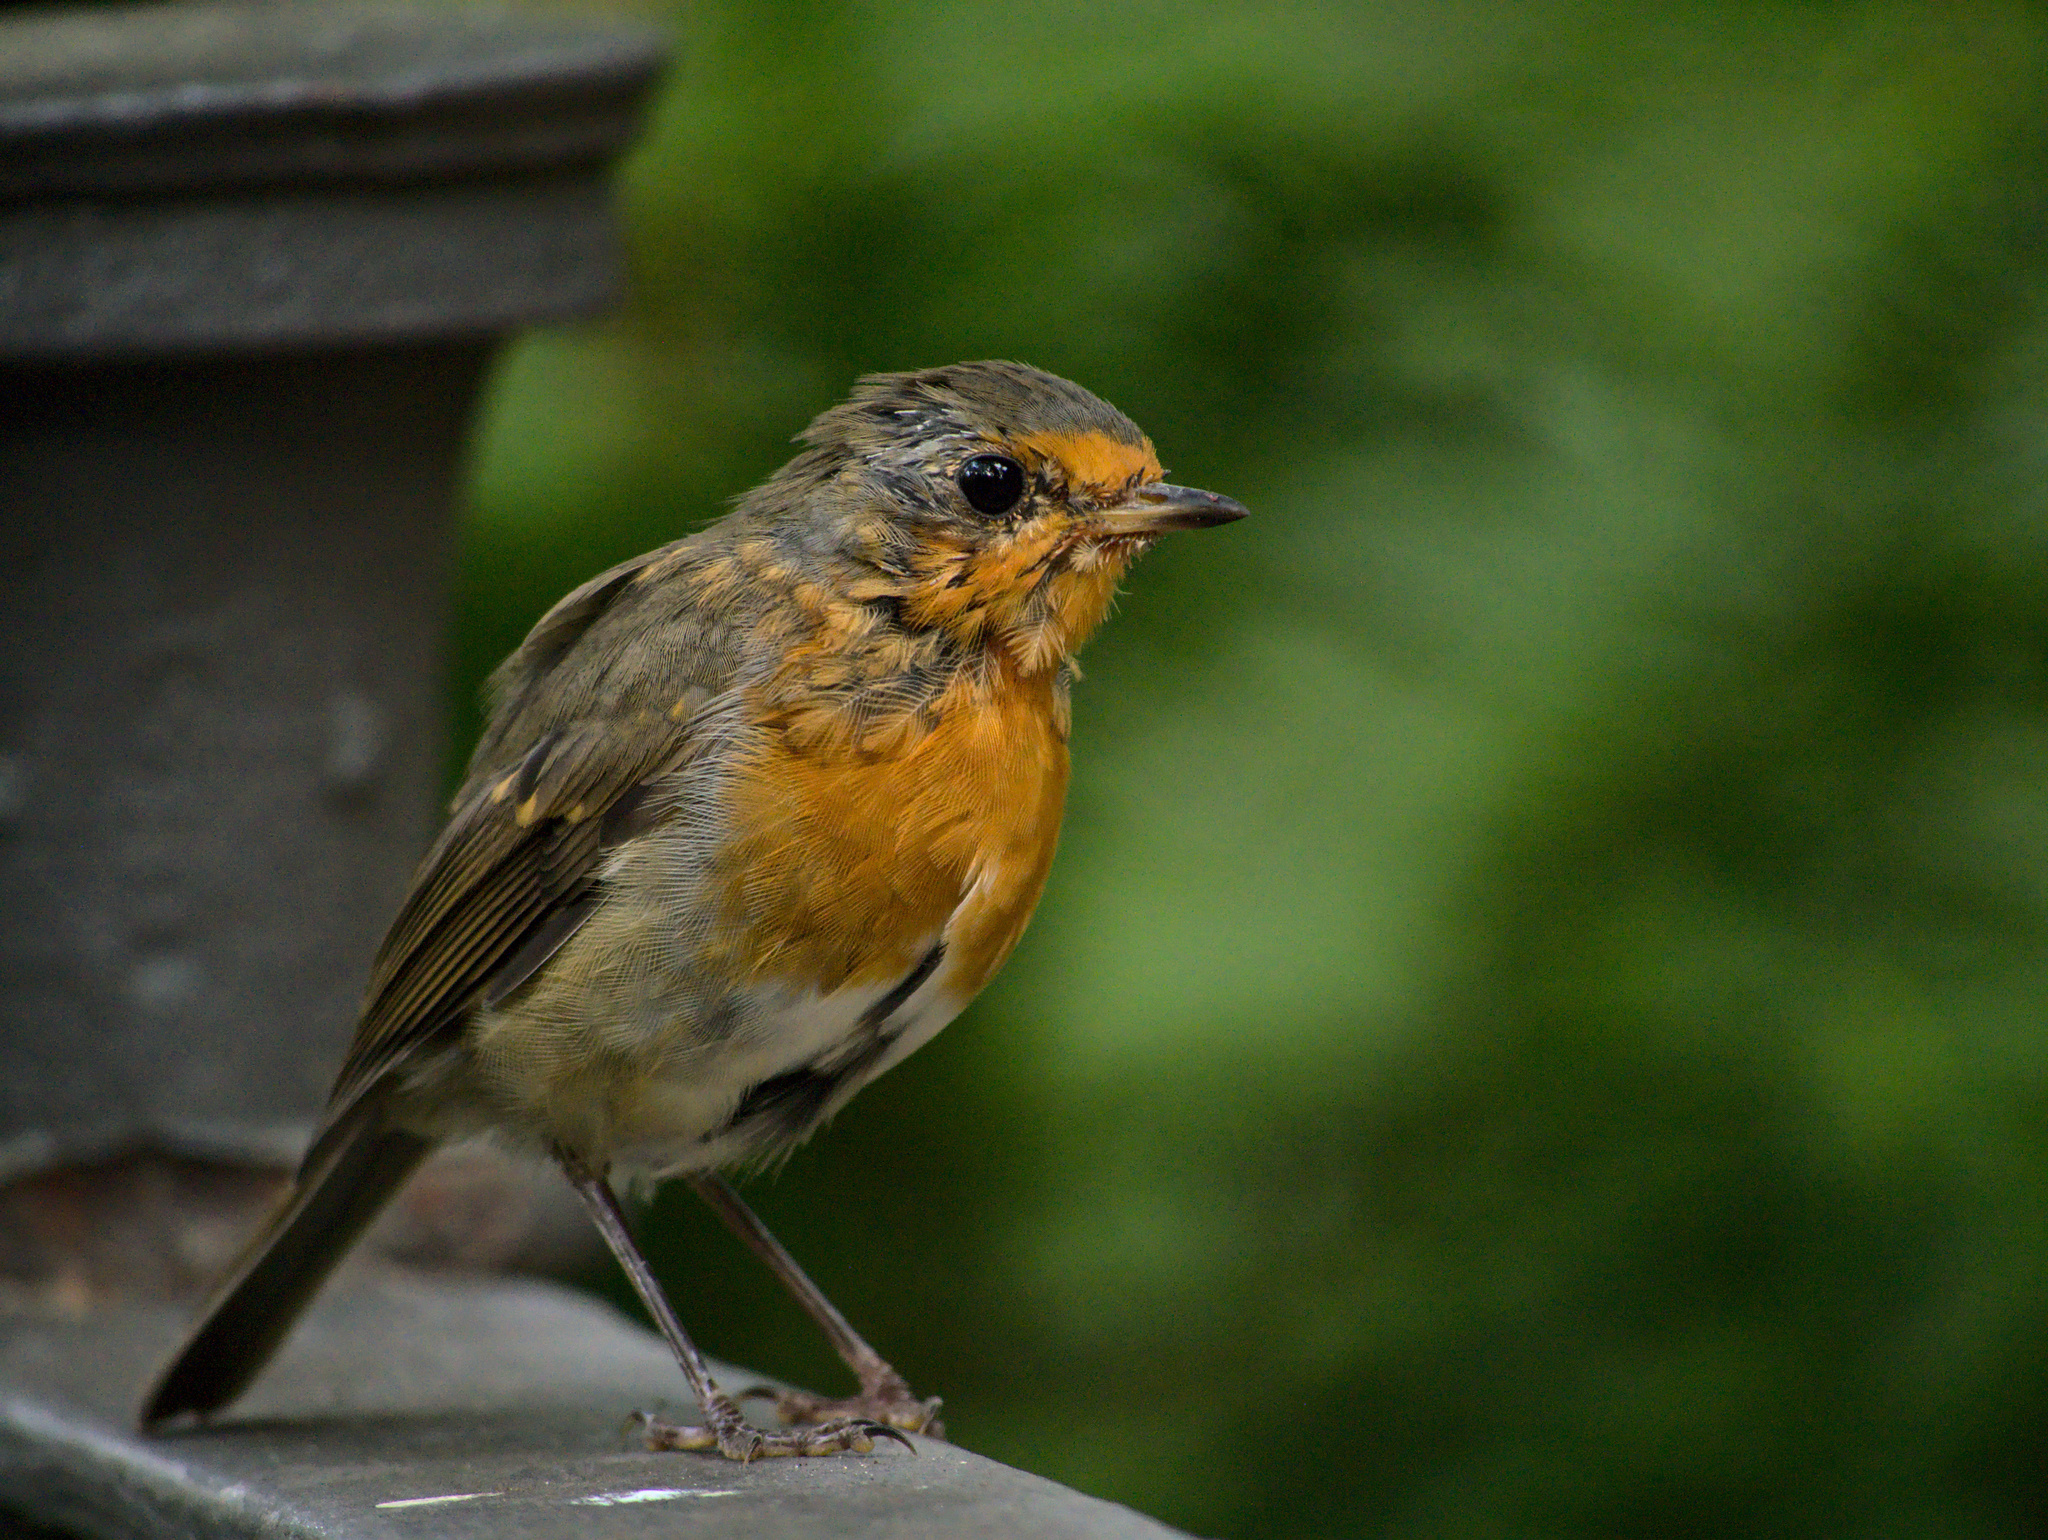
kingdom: Animalia
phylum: Chordata
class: Aves
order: Passeriformes
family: Muscicapidae
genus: Erithacus
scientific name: Erithacus rubecula
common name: European robin
